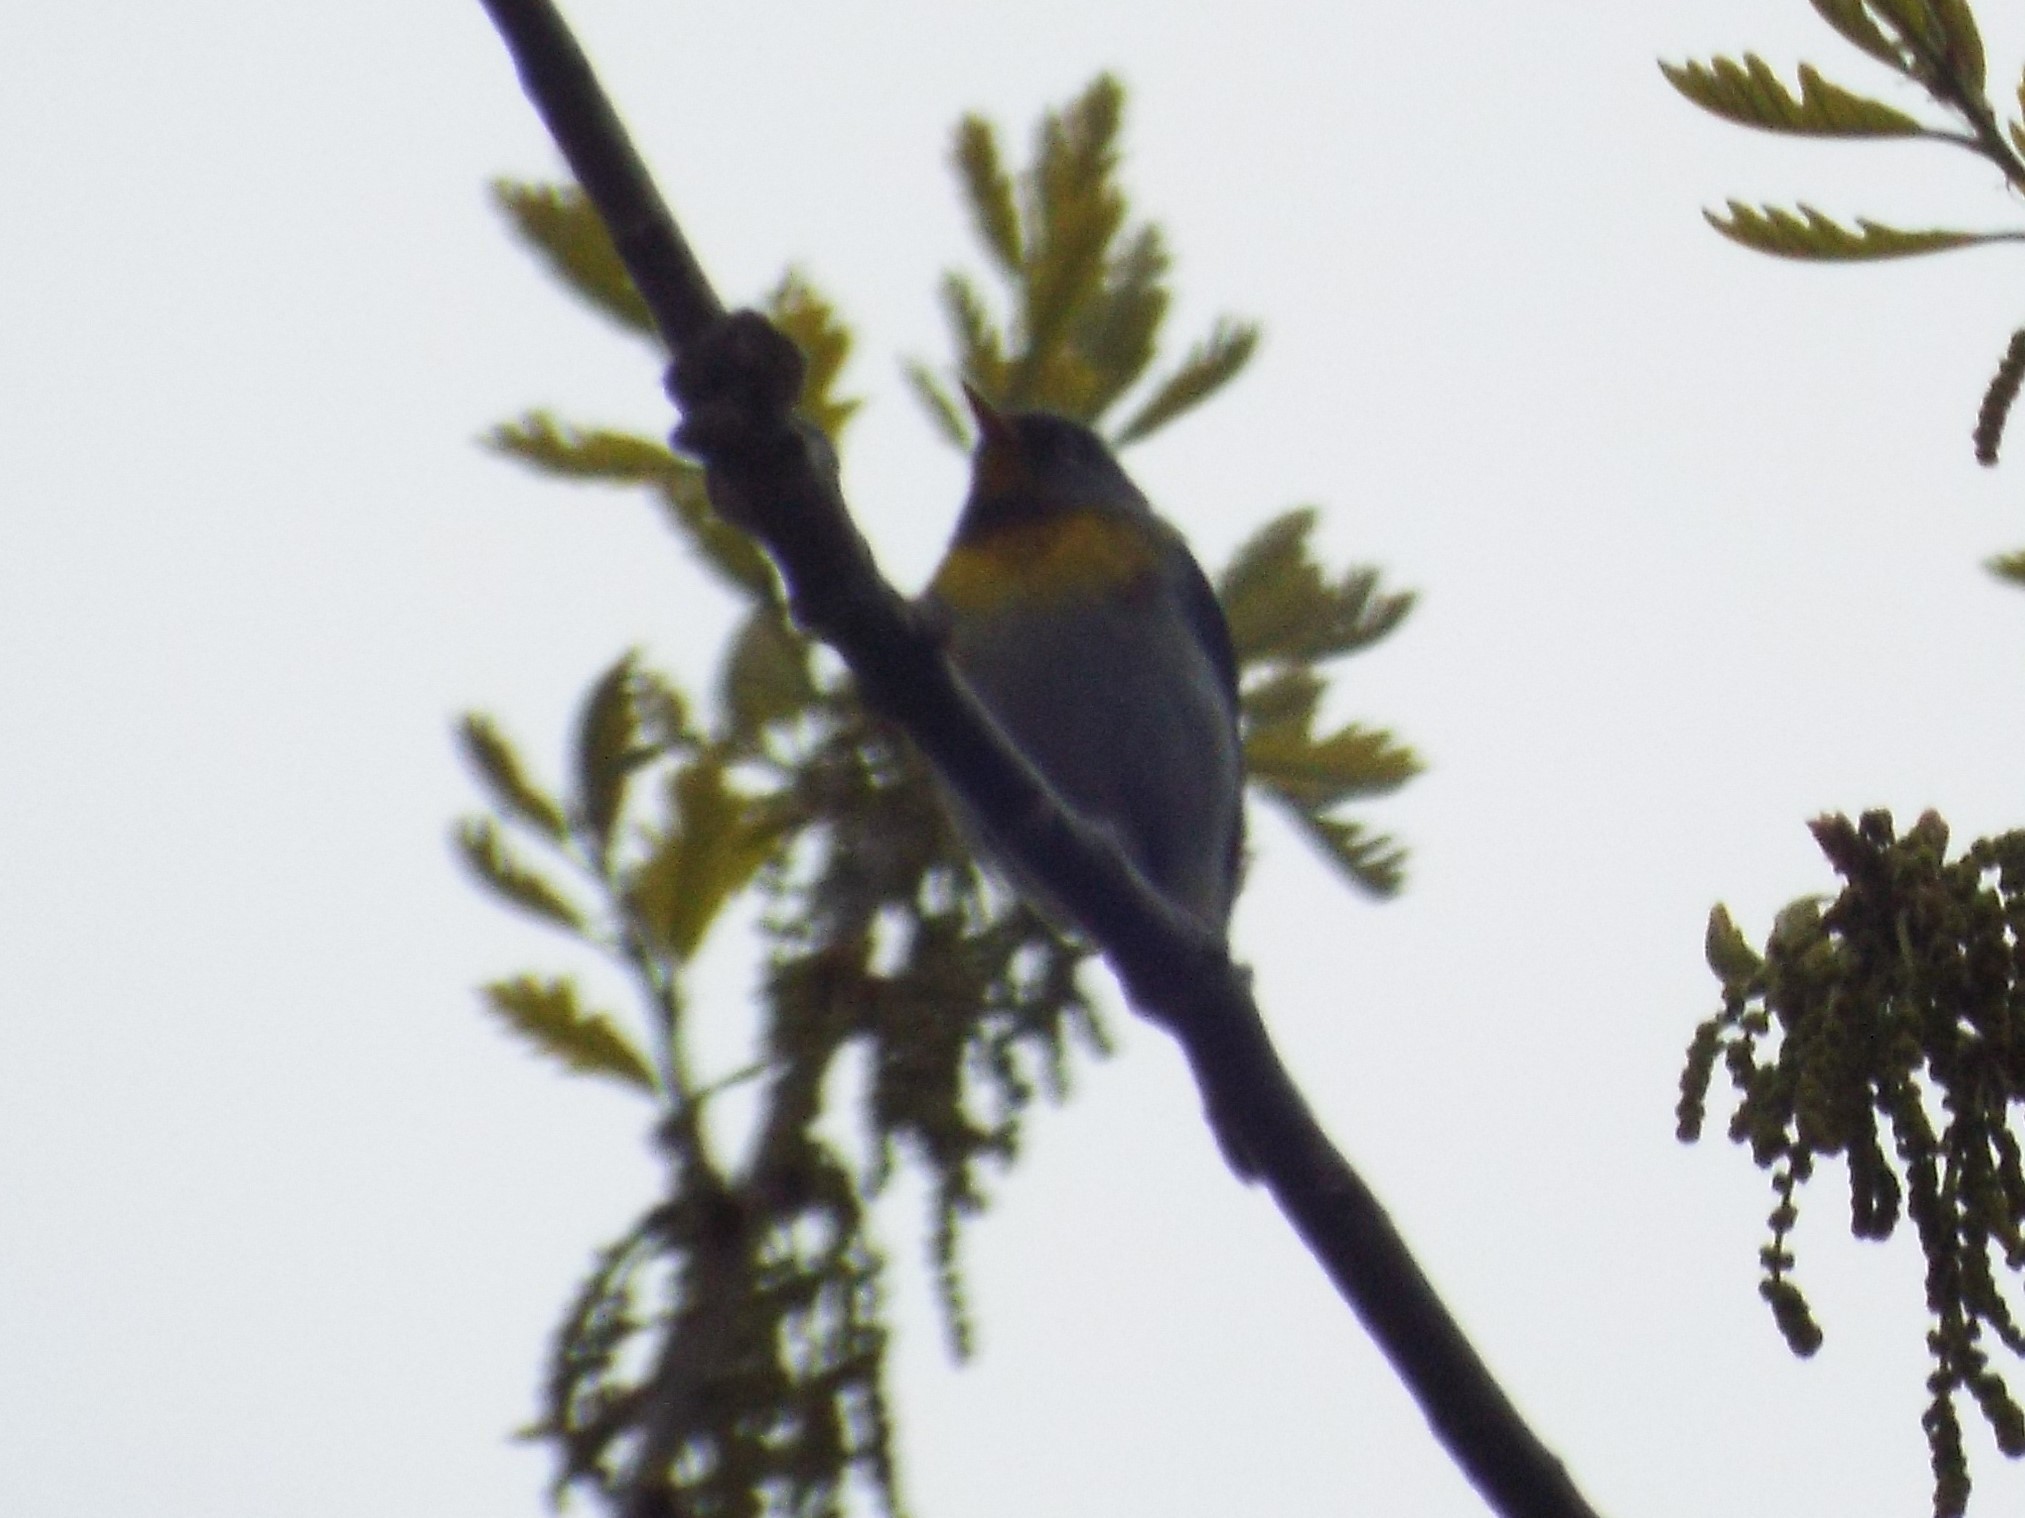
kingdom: Animalia
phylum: Chordata
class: Aves
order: Passeriformes
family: Parulidae
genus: Setophaga
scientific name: Setophaga americana
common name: Northern parula
